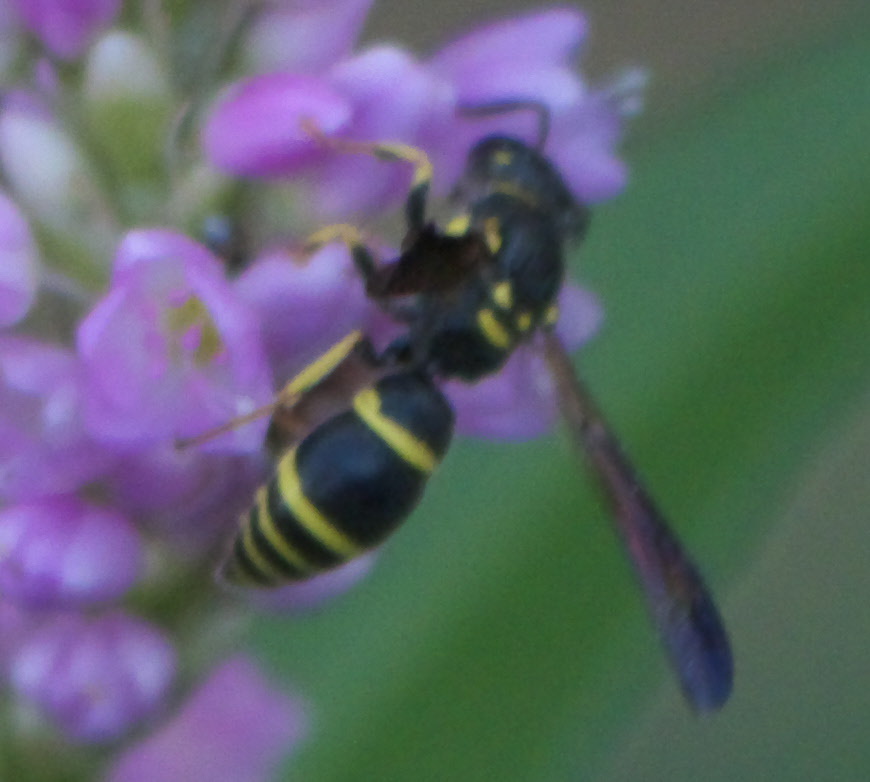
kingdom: Animalia
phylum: Arthropoda
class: Insecta
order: Hymenoptera
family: Vespidae
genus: Ancistrocerus
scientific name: Ancistrocerus adiabatus
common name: Bramble mason wasp
